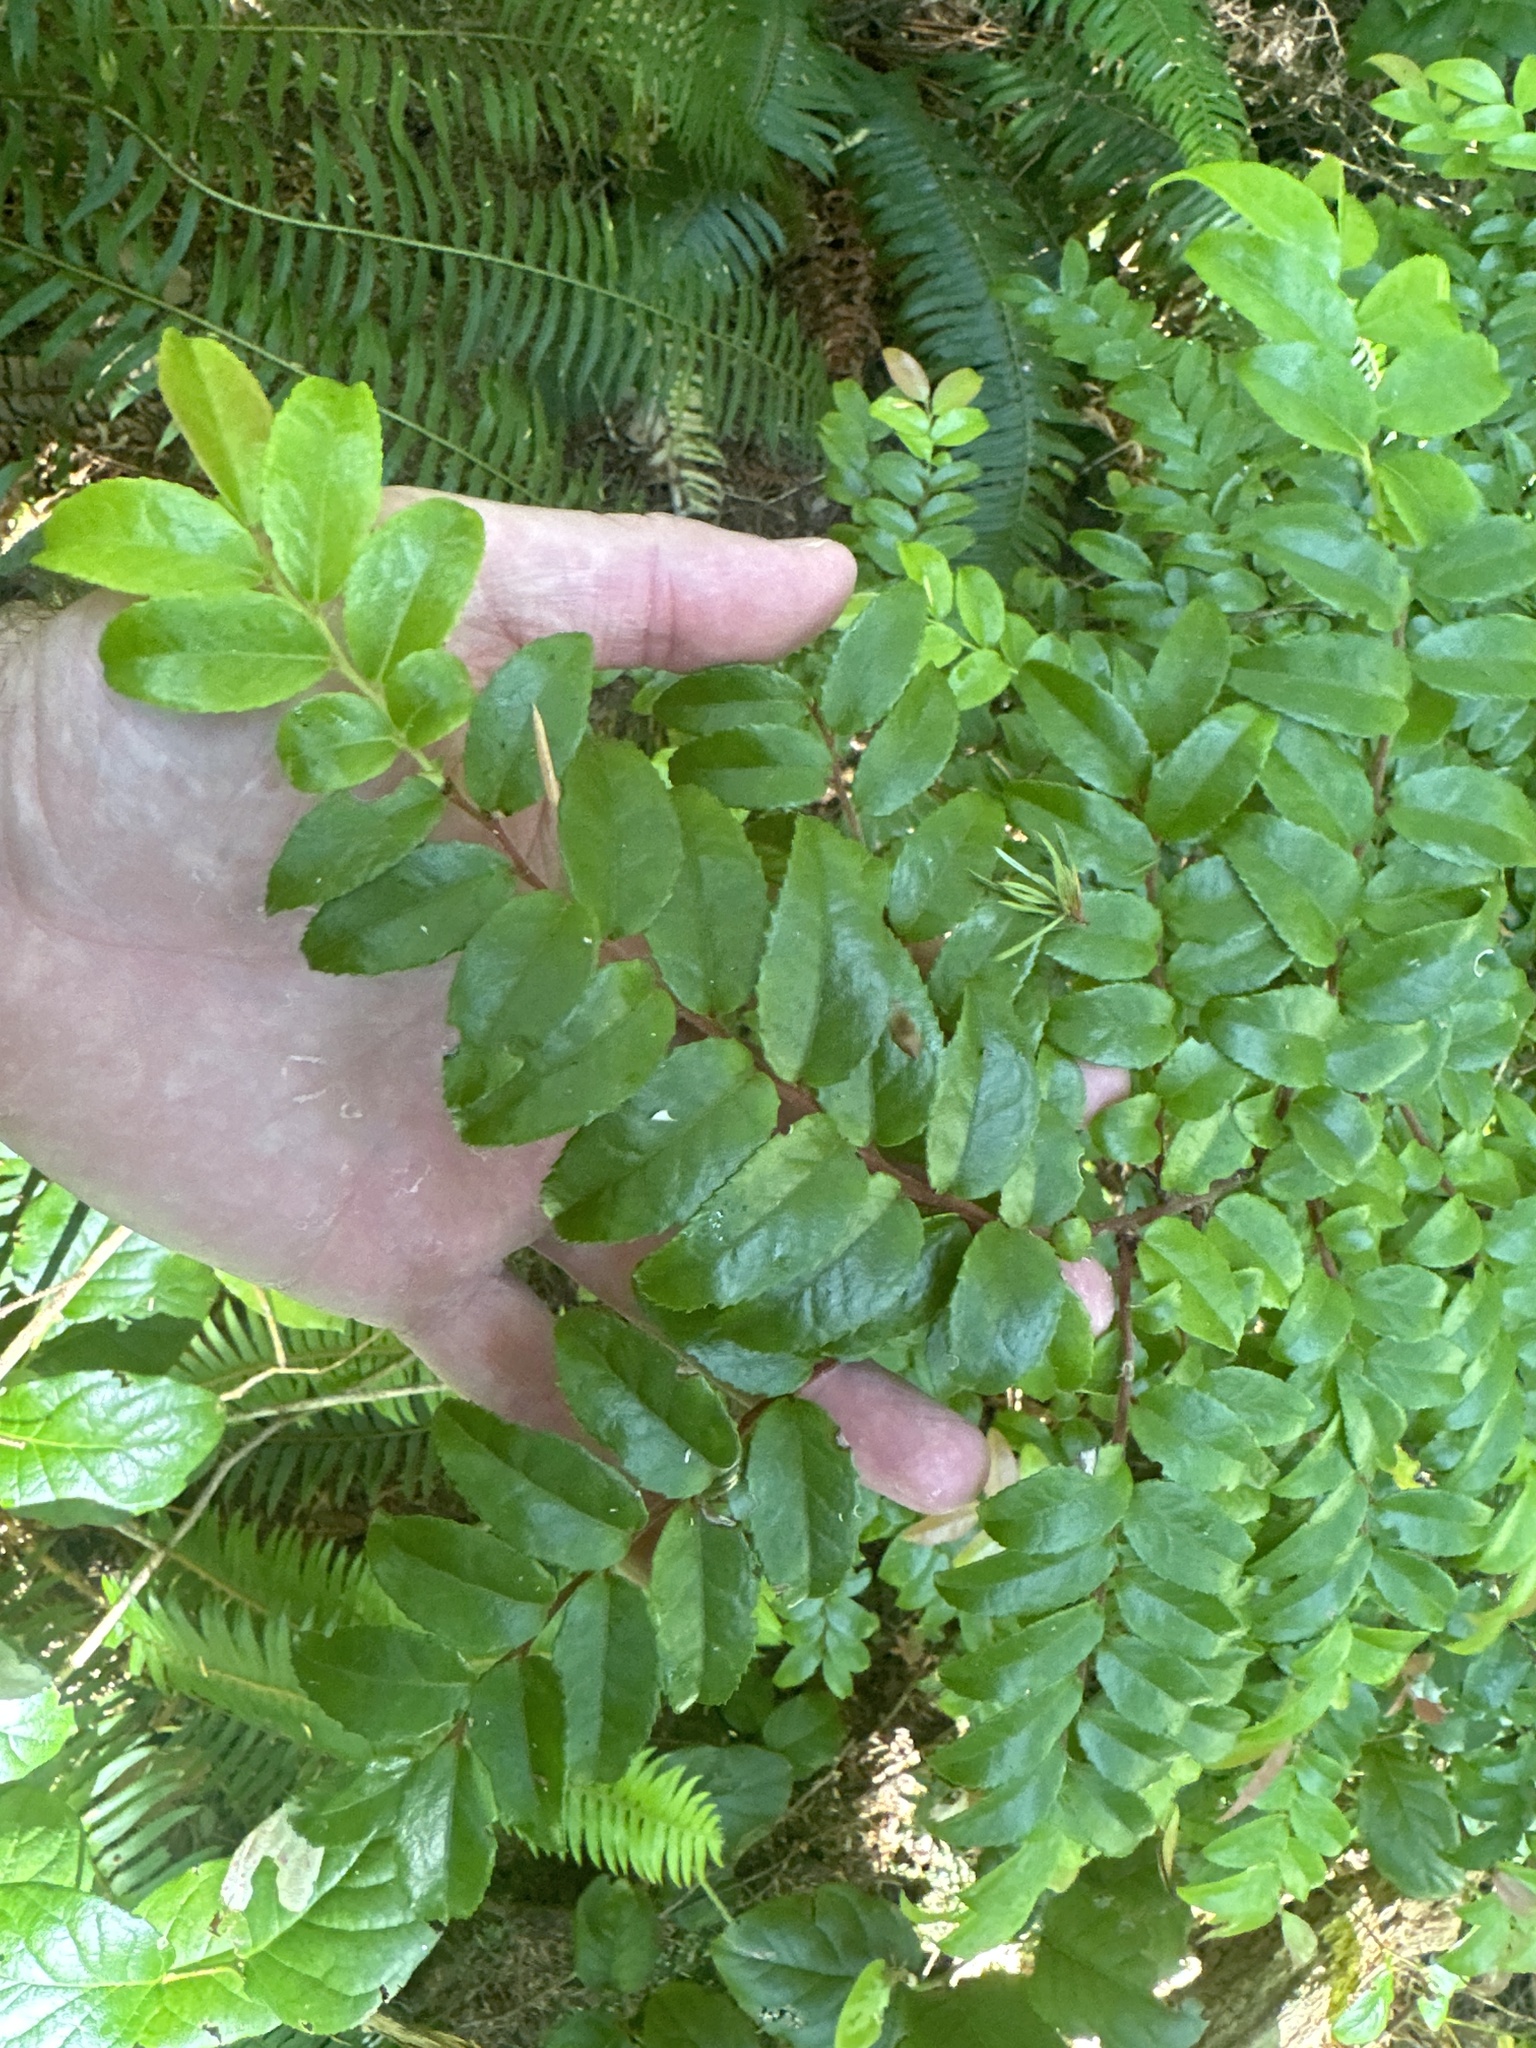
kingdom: Plantae
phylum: Tracheophyta
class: Magnoliopsida
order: Ericales
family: Ericaceae
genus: Vaccinium
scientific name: Vaccinium ovatum
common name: California-huckleberry
